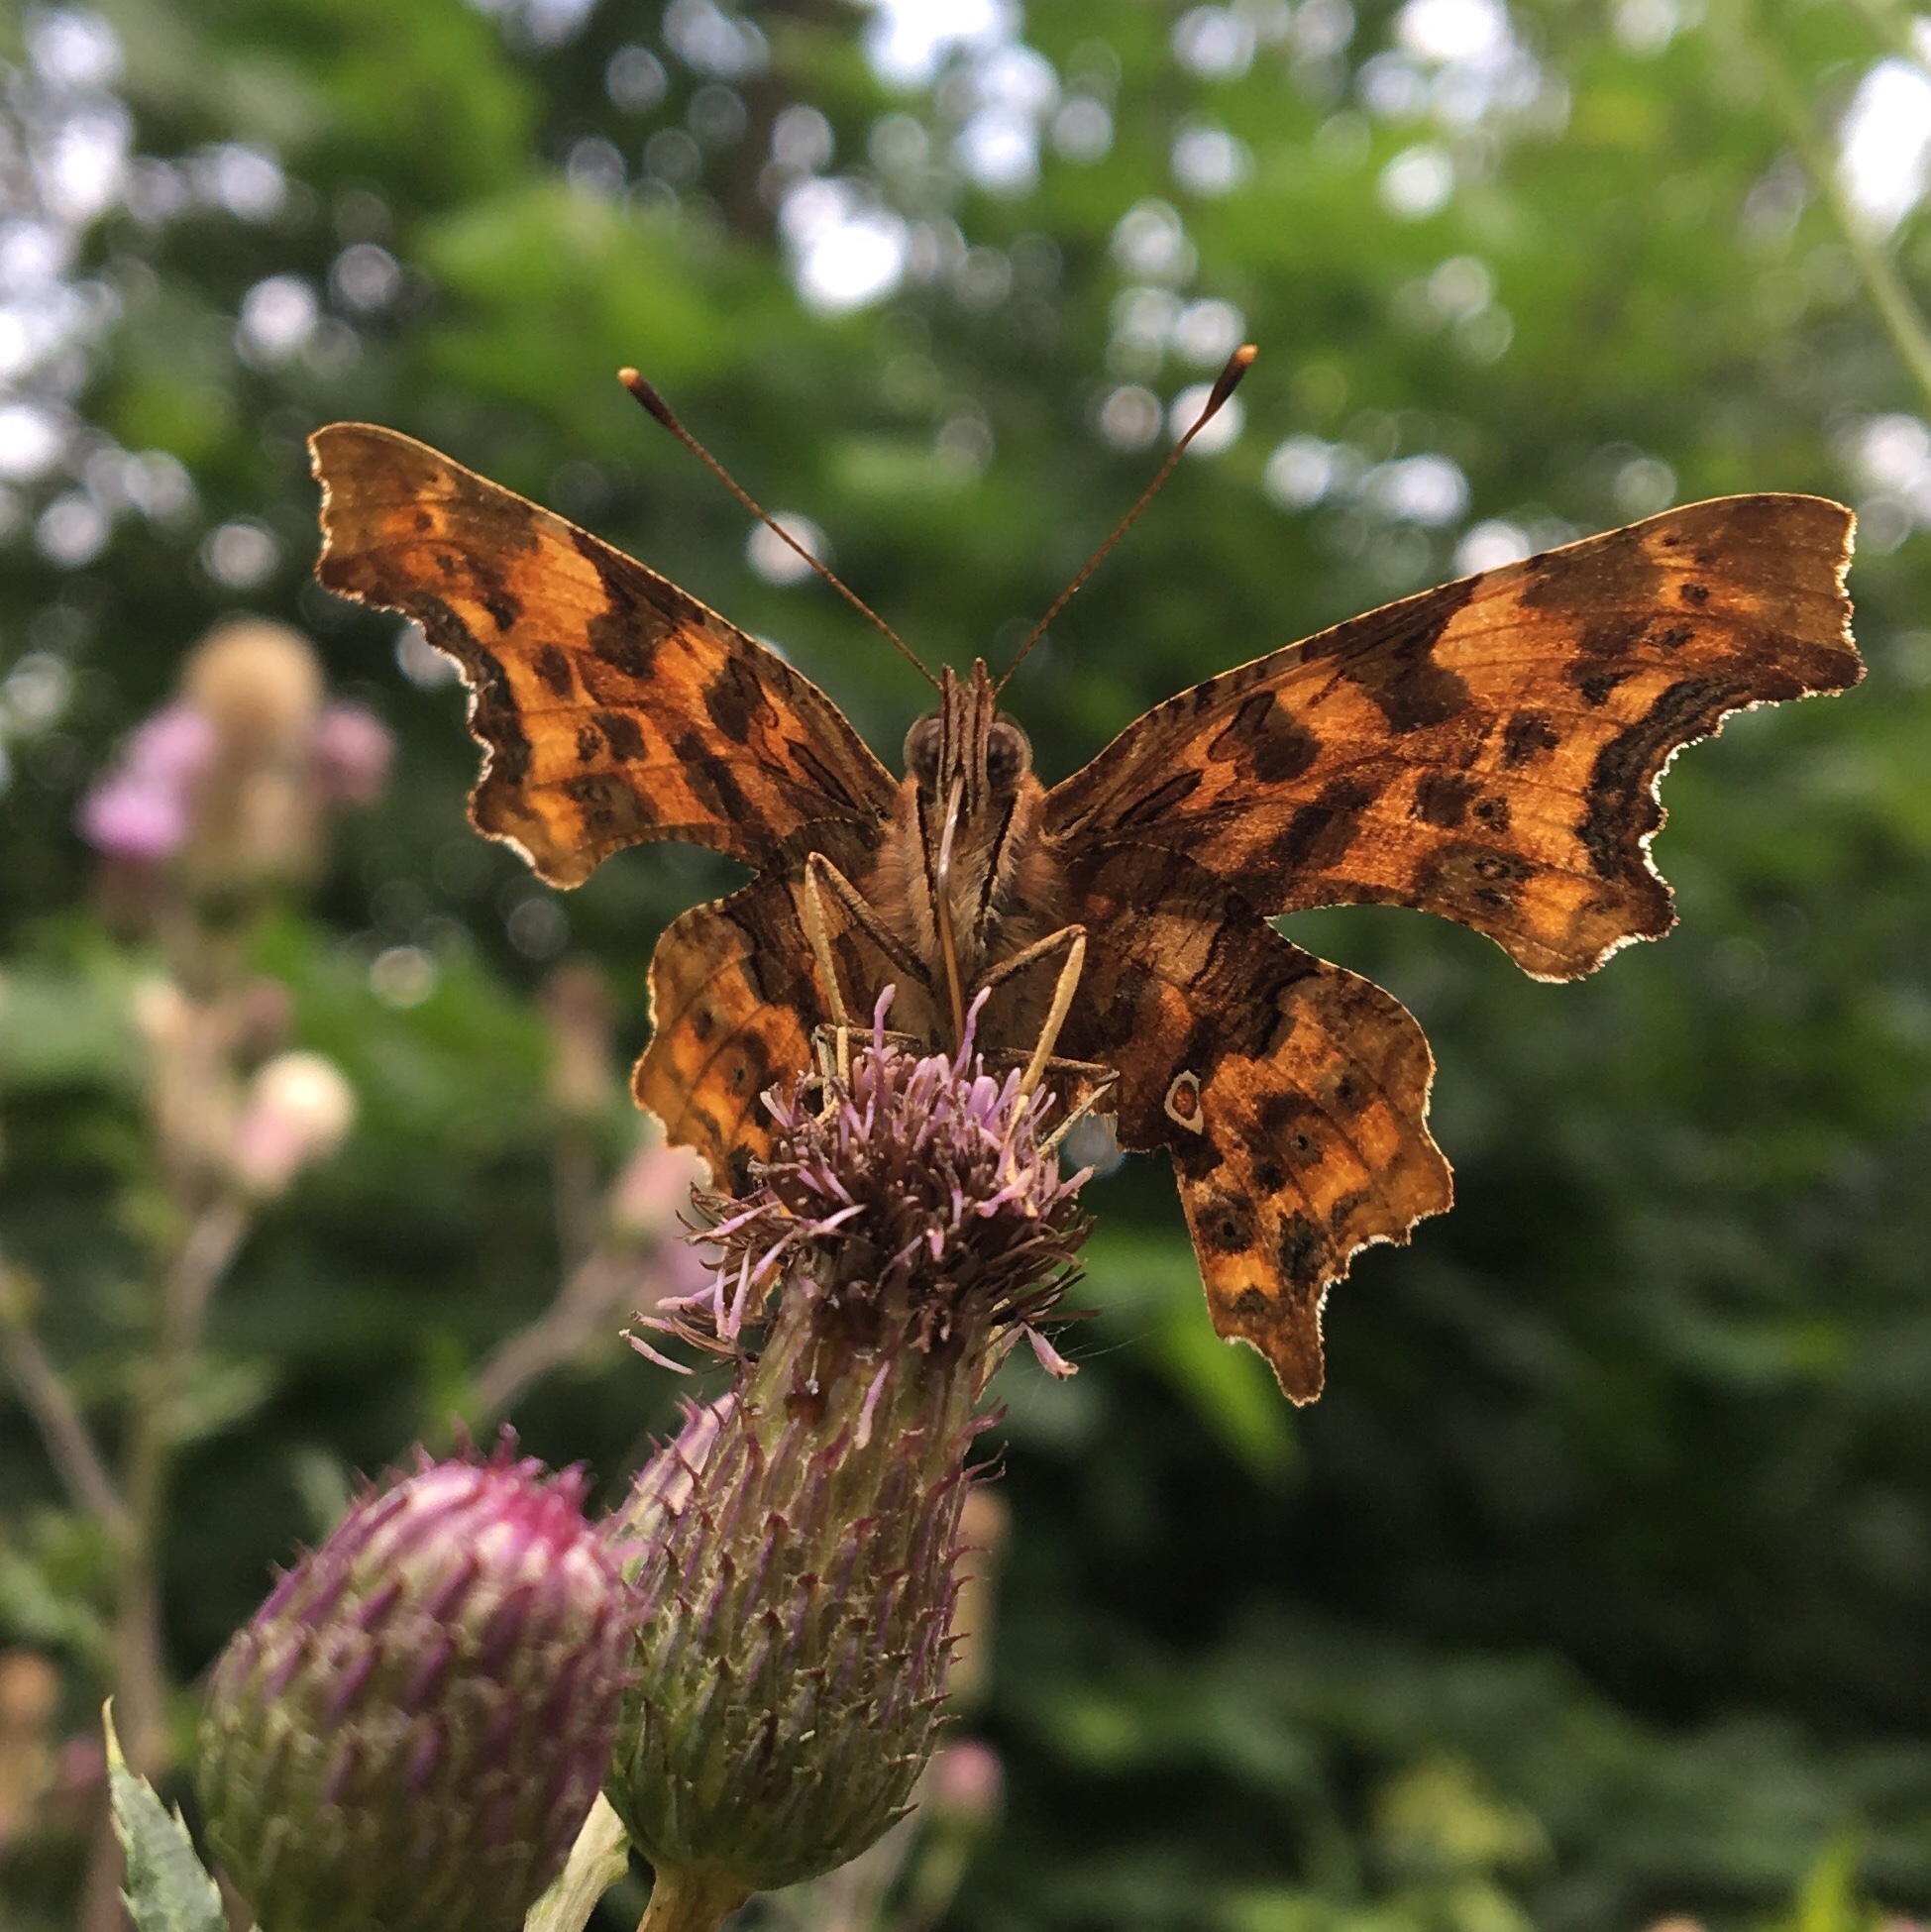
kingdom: Animalia
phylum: Arthropoda
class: Insecta
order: Lepidoptera
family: Nymphalidae
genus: Polygonia
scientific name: Polygonia c-album
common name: Comma
